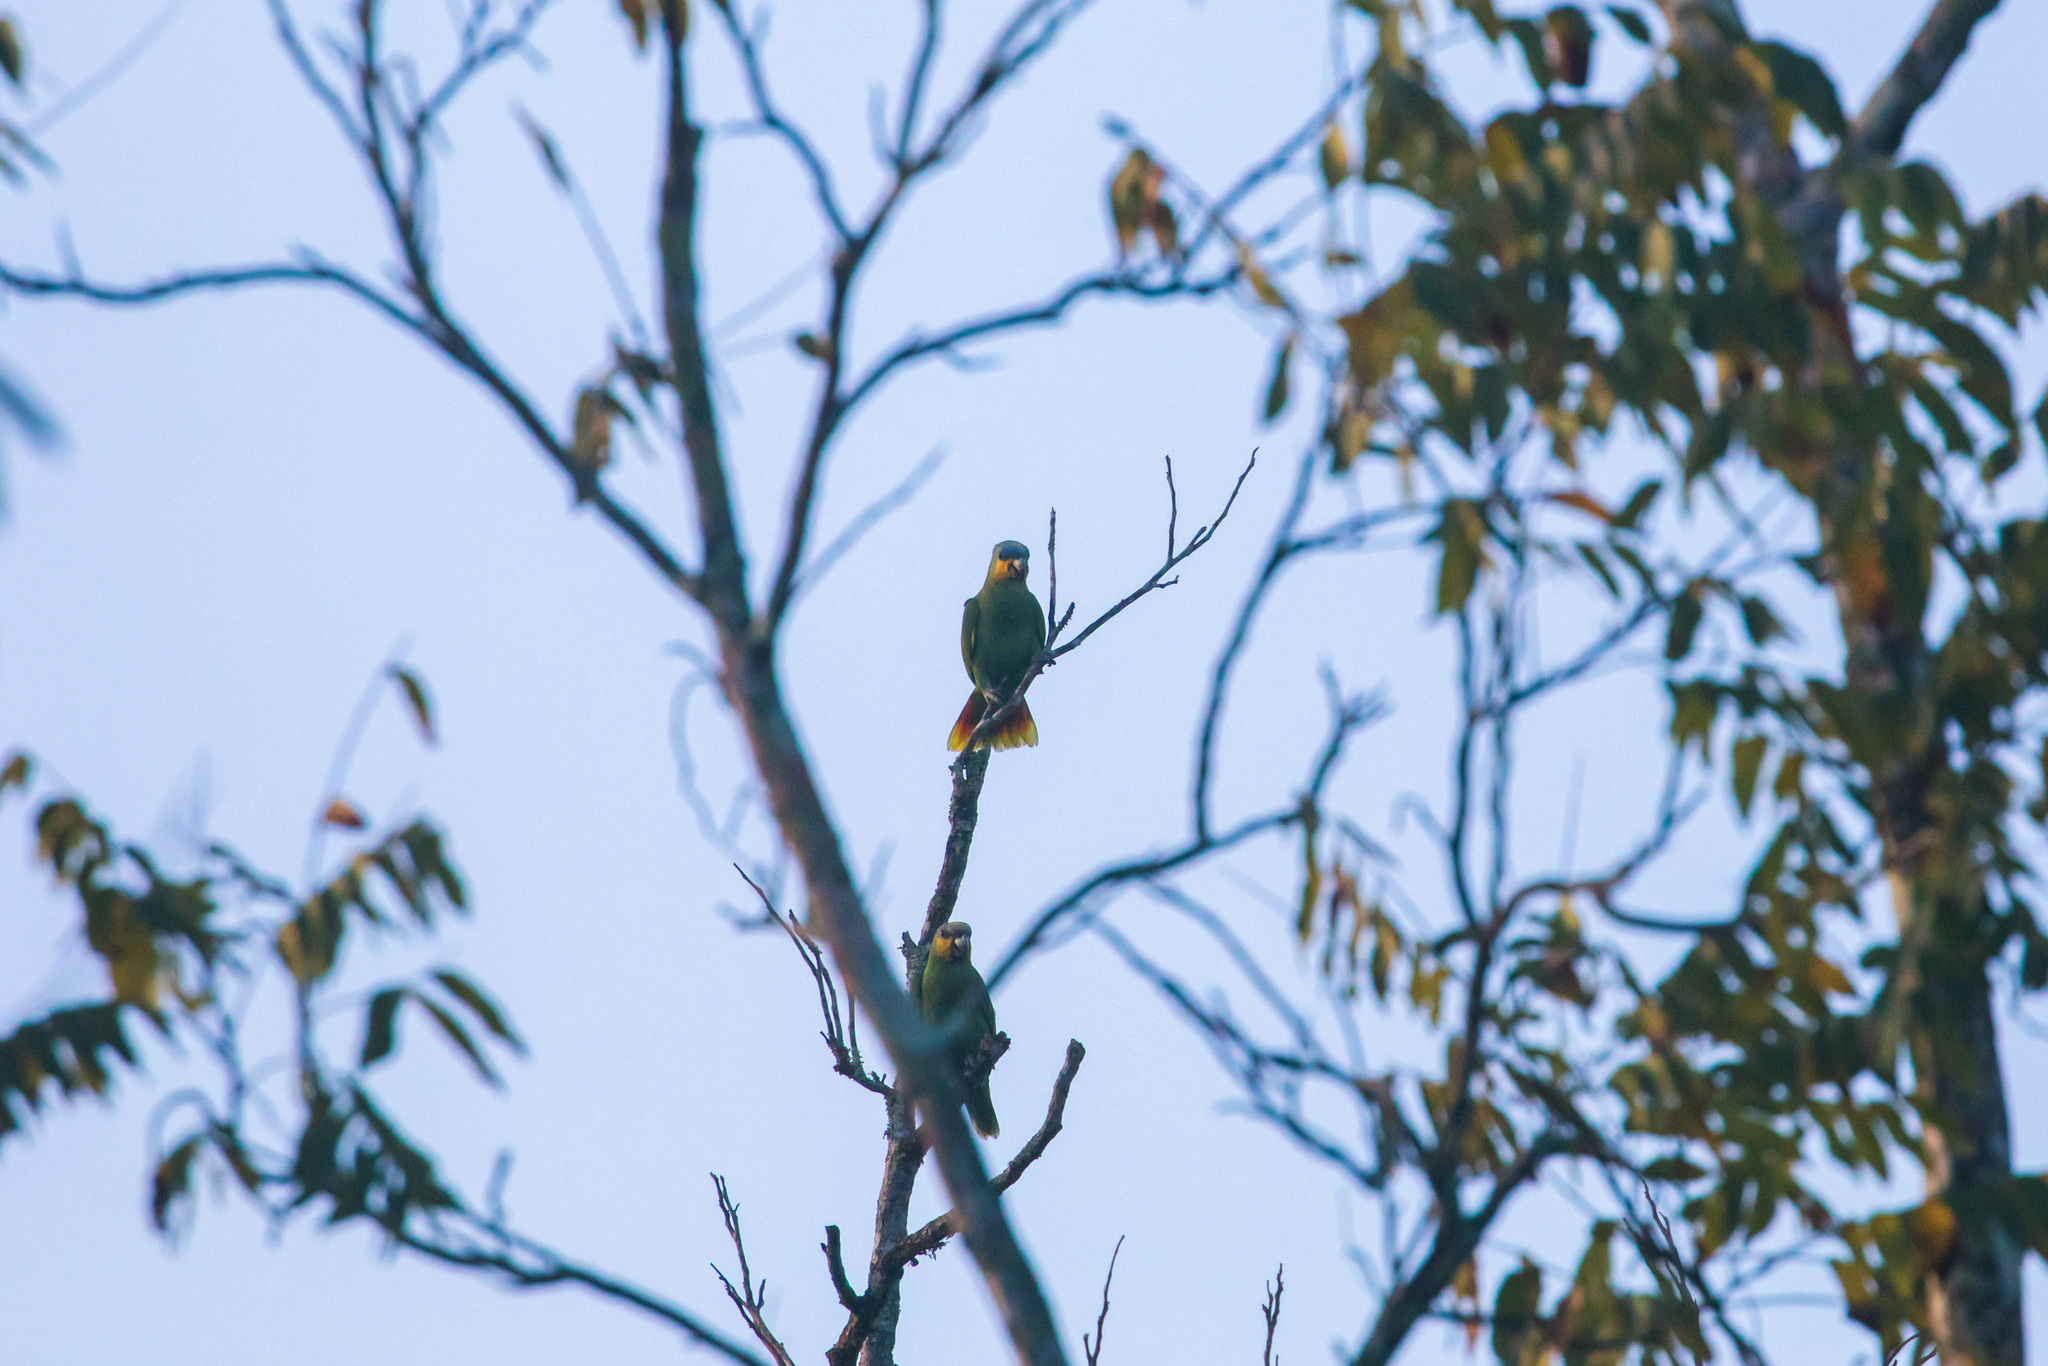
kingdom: Animalia
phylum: Chordata
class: Aves
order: Psittaciformes
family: Psittacidae
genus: Amazona
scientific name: Amazona amazonica
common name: Orange-winged amazon
